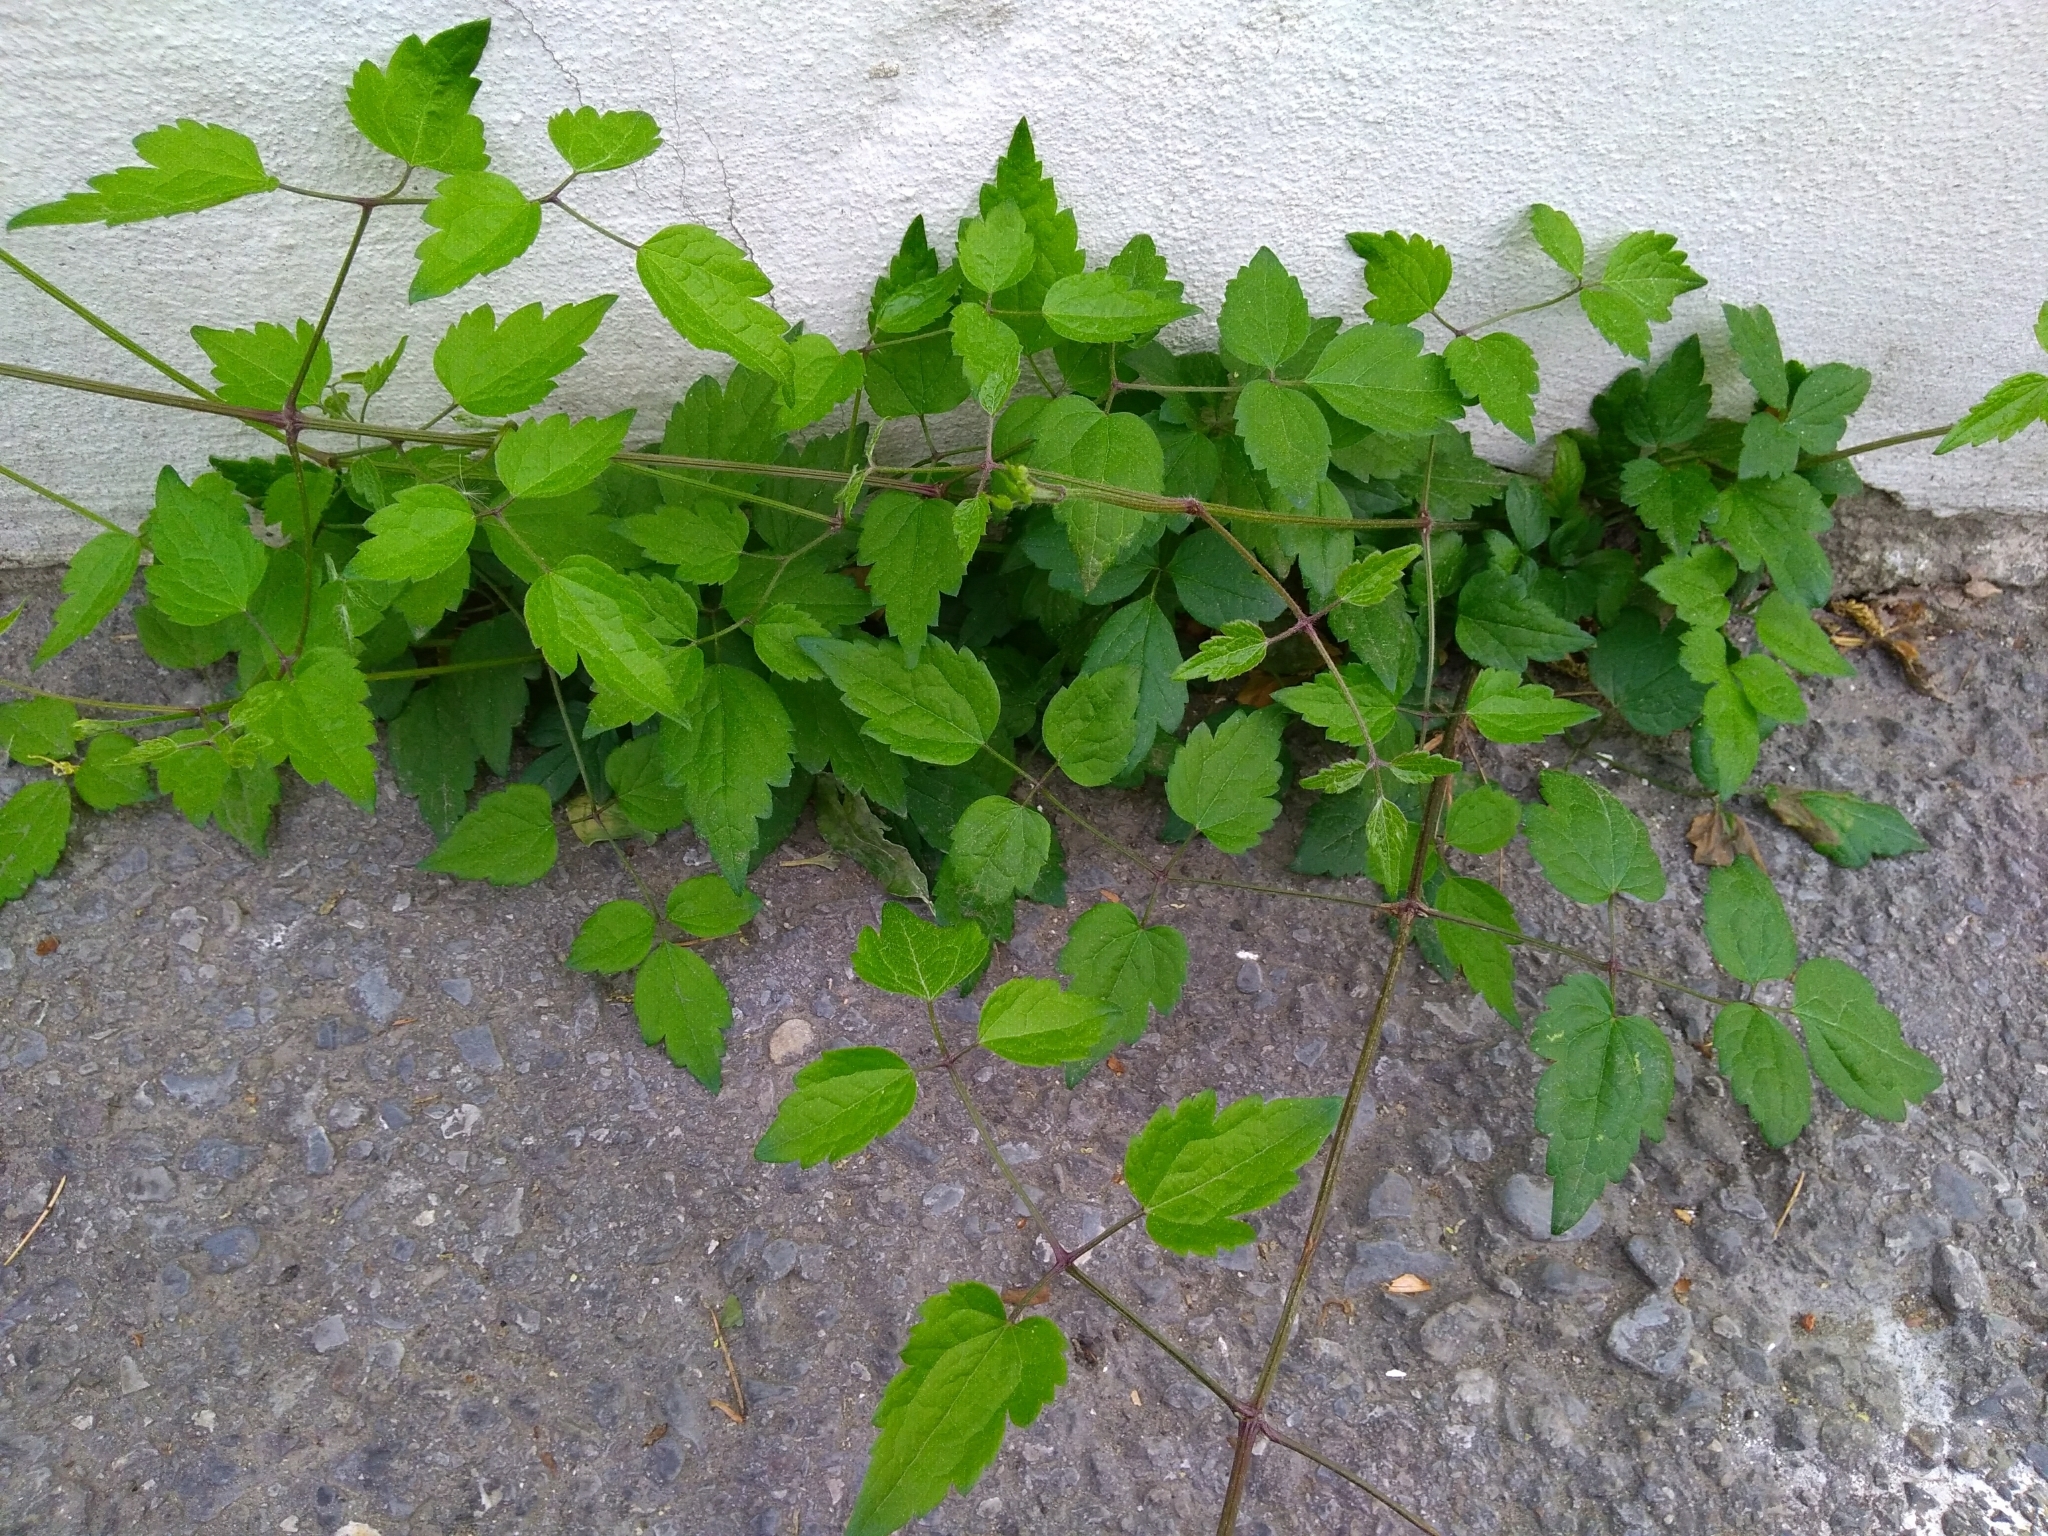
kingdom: Plantae
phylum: Tracheophyta
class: Magnoliopsida
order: Ranunculales
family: Ranunculaceae
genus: Clematis
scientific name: Clematis vitalba
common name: Evergreen clematis
